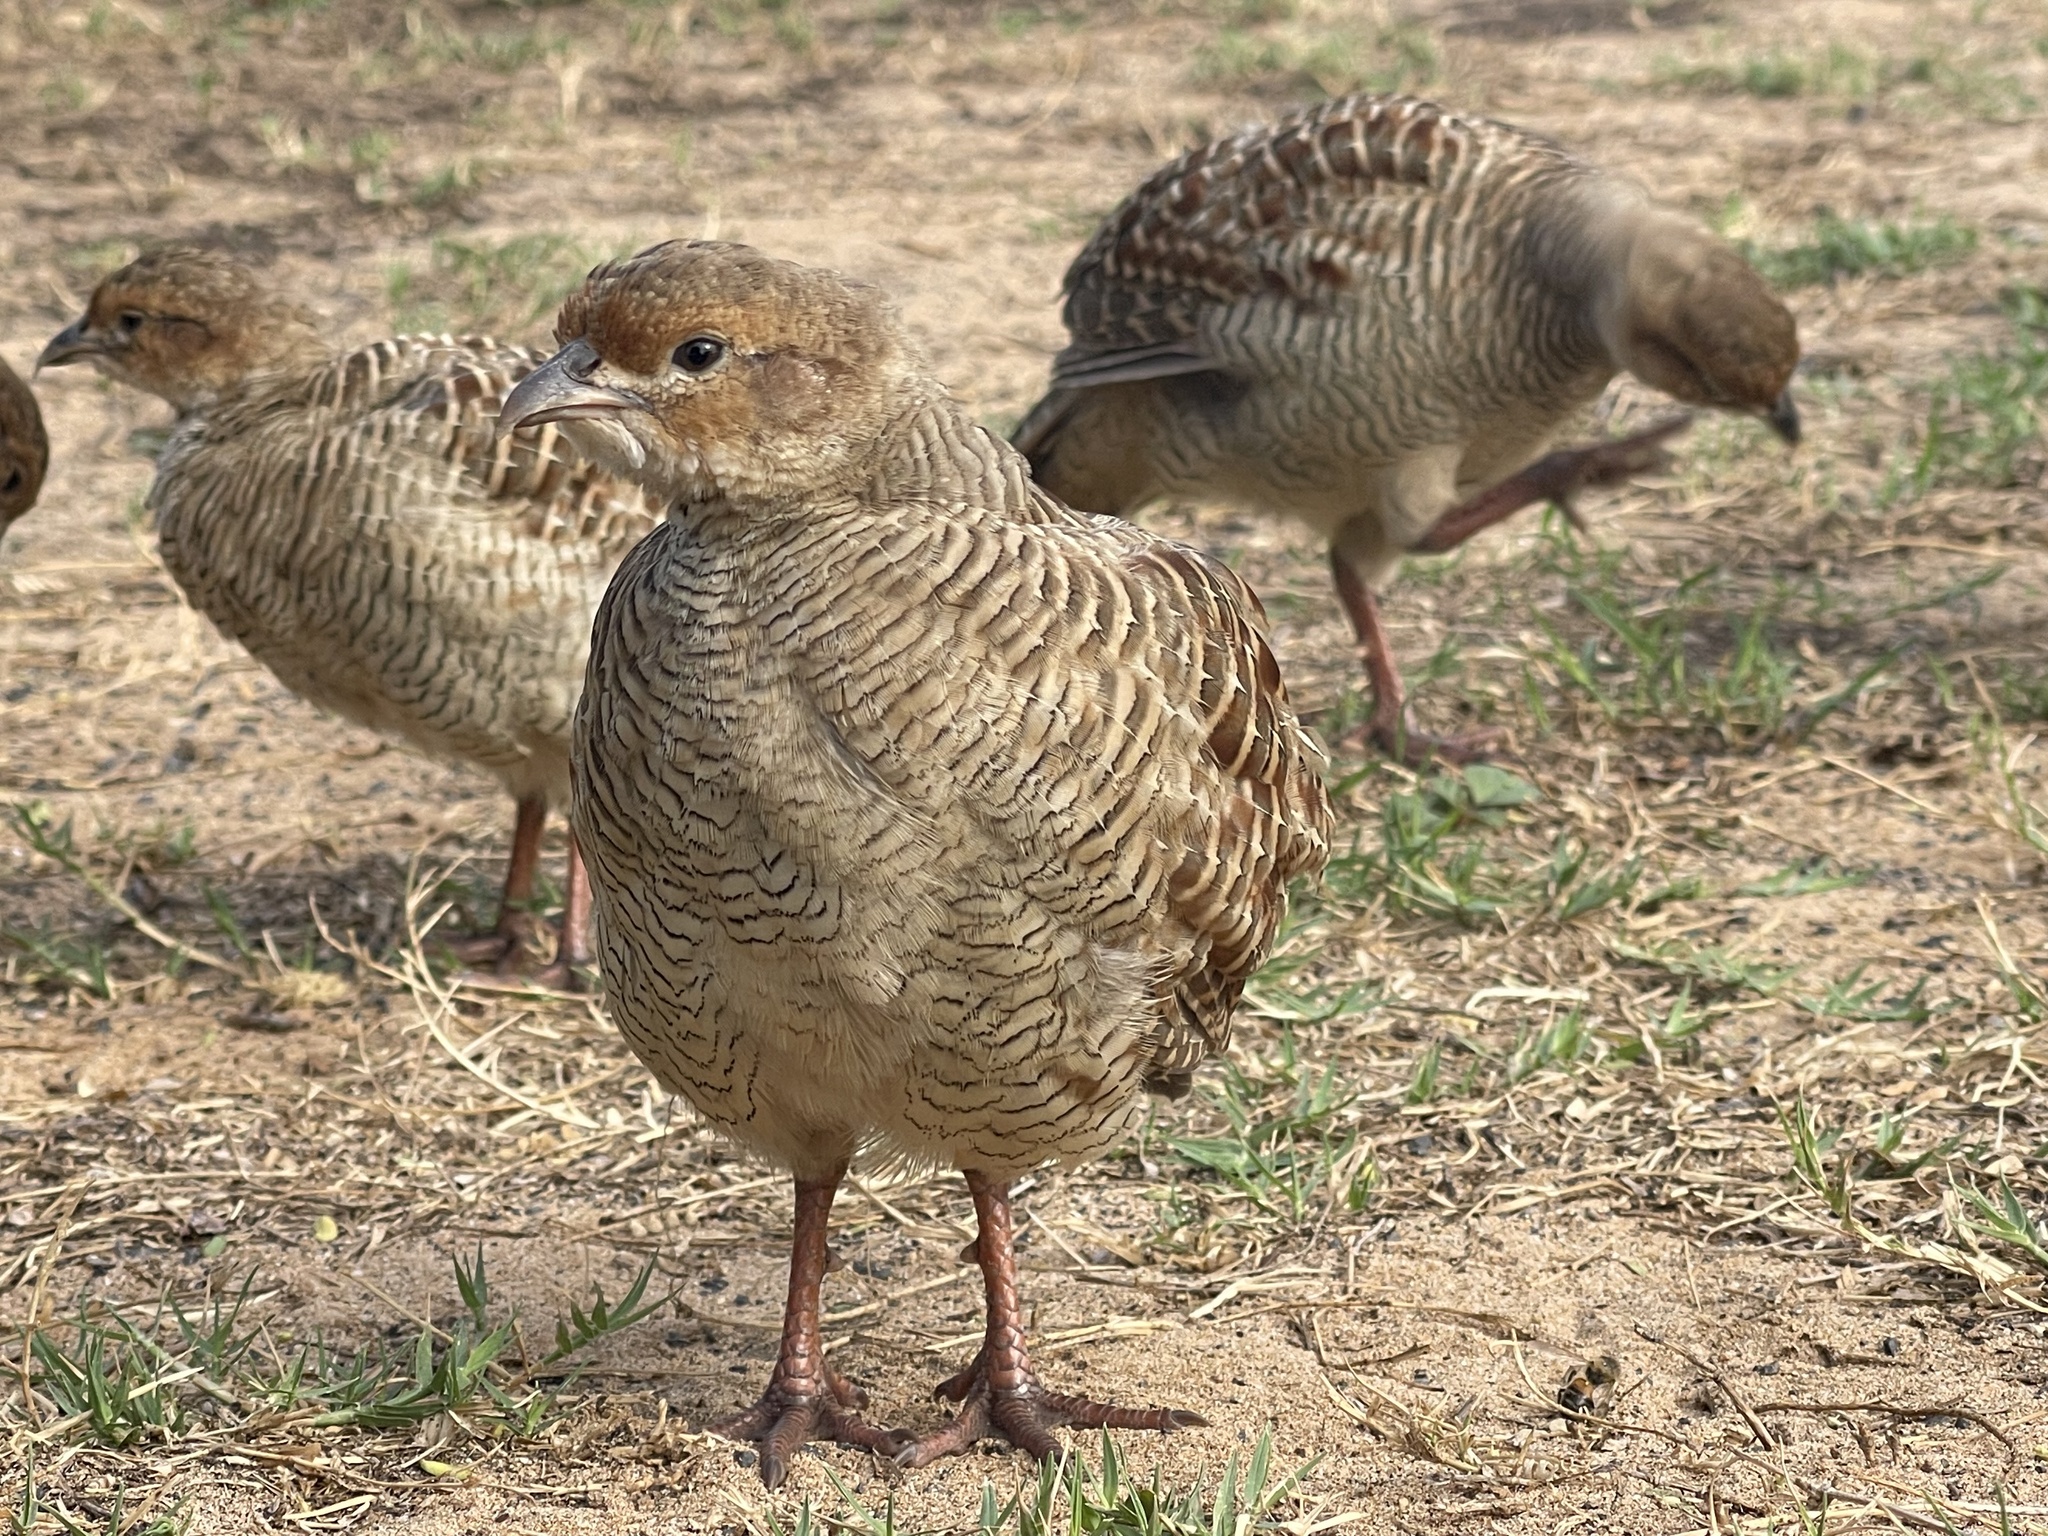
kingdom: Animalia
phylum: Chordata
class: Aves
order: Galliformes
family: Phasianidae
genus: Ortygornis
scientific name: Ortygornis pondicerianus
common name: Grey francolin
